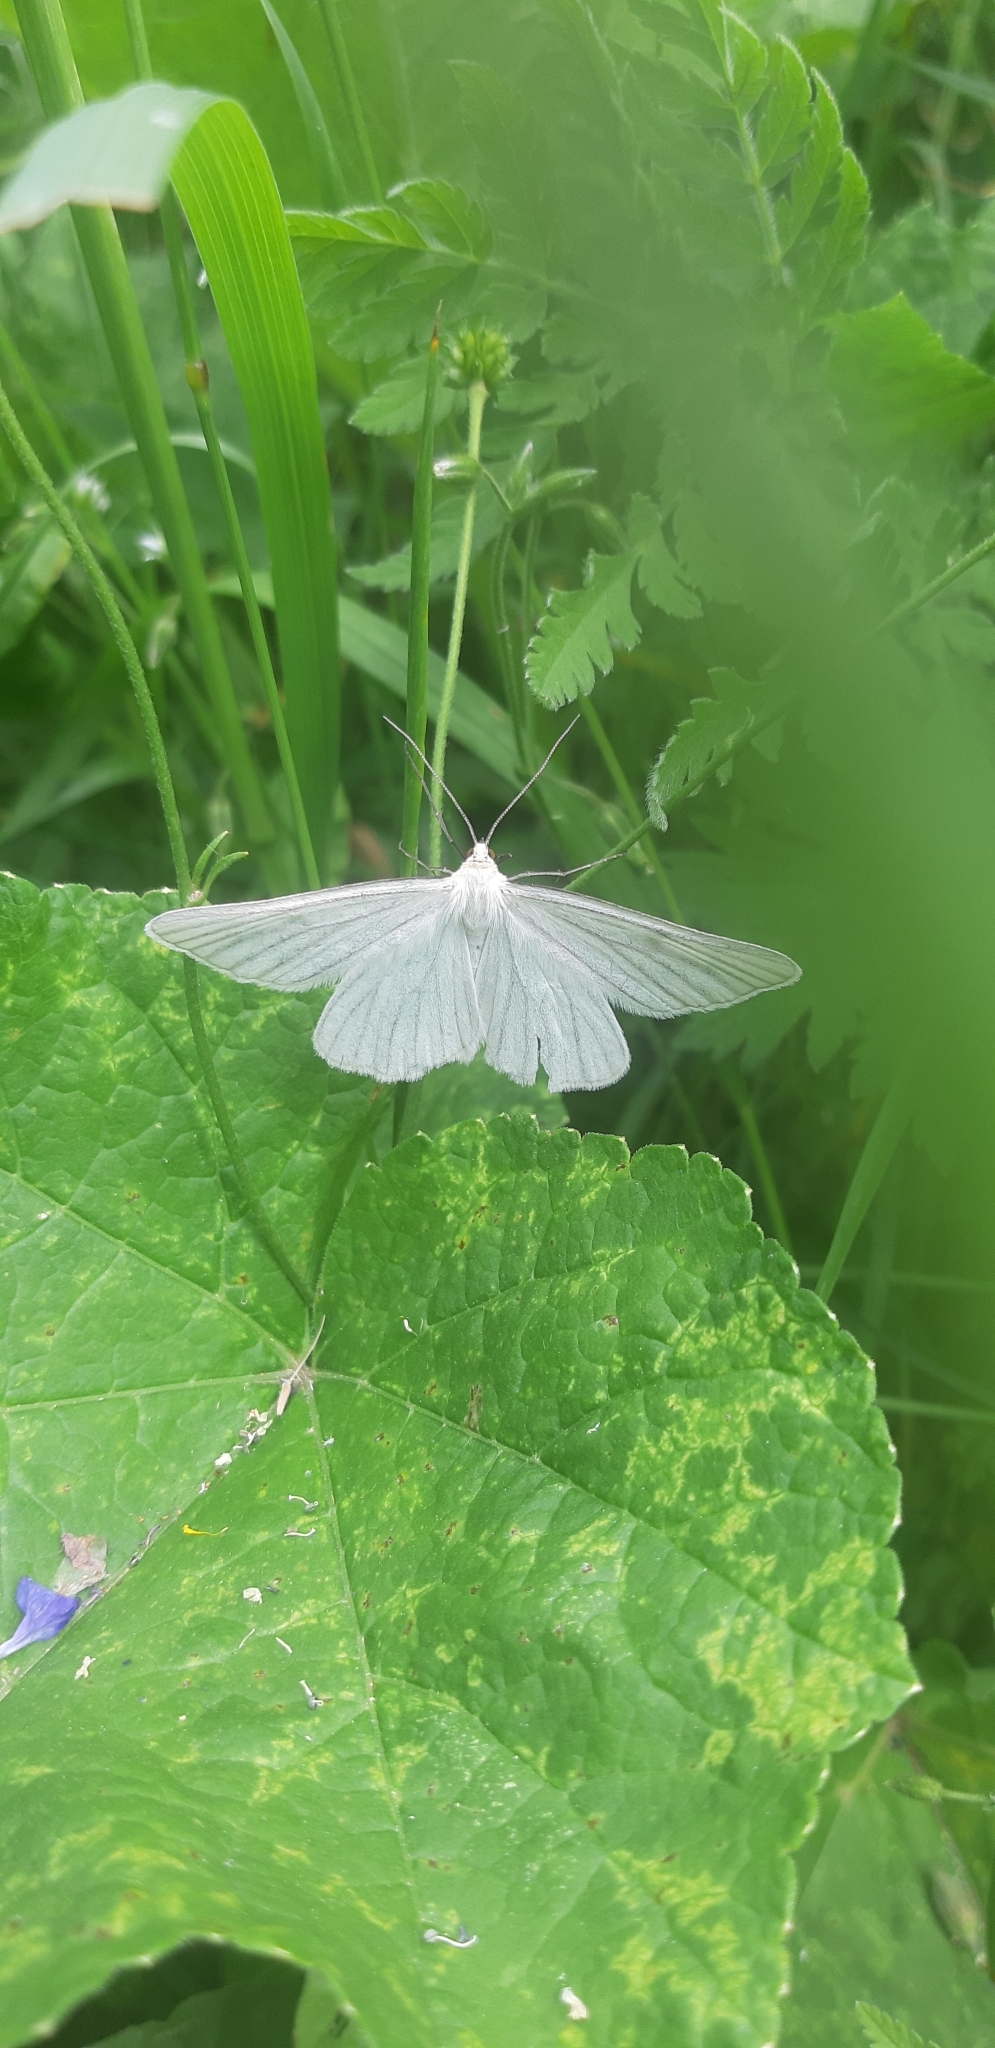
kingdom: Animalia
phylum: Arthropoda
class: Insecta
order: Lepidoptera
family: Geometridae
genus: Siona
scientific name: Siona lineata
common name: Black-veined moth
